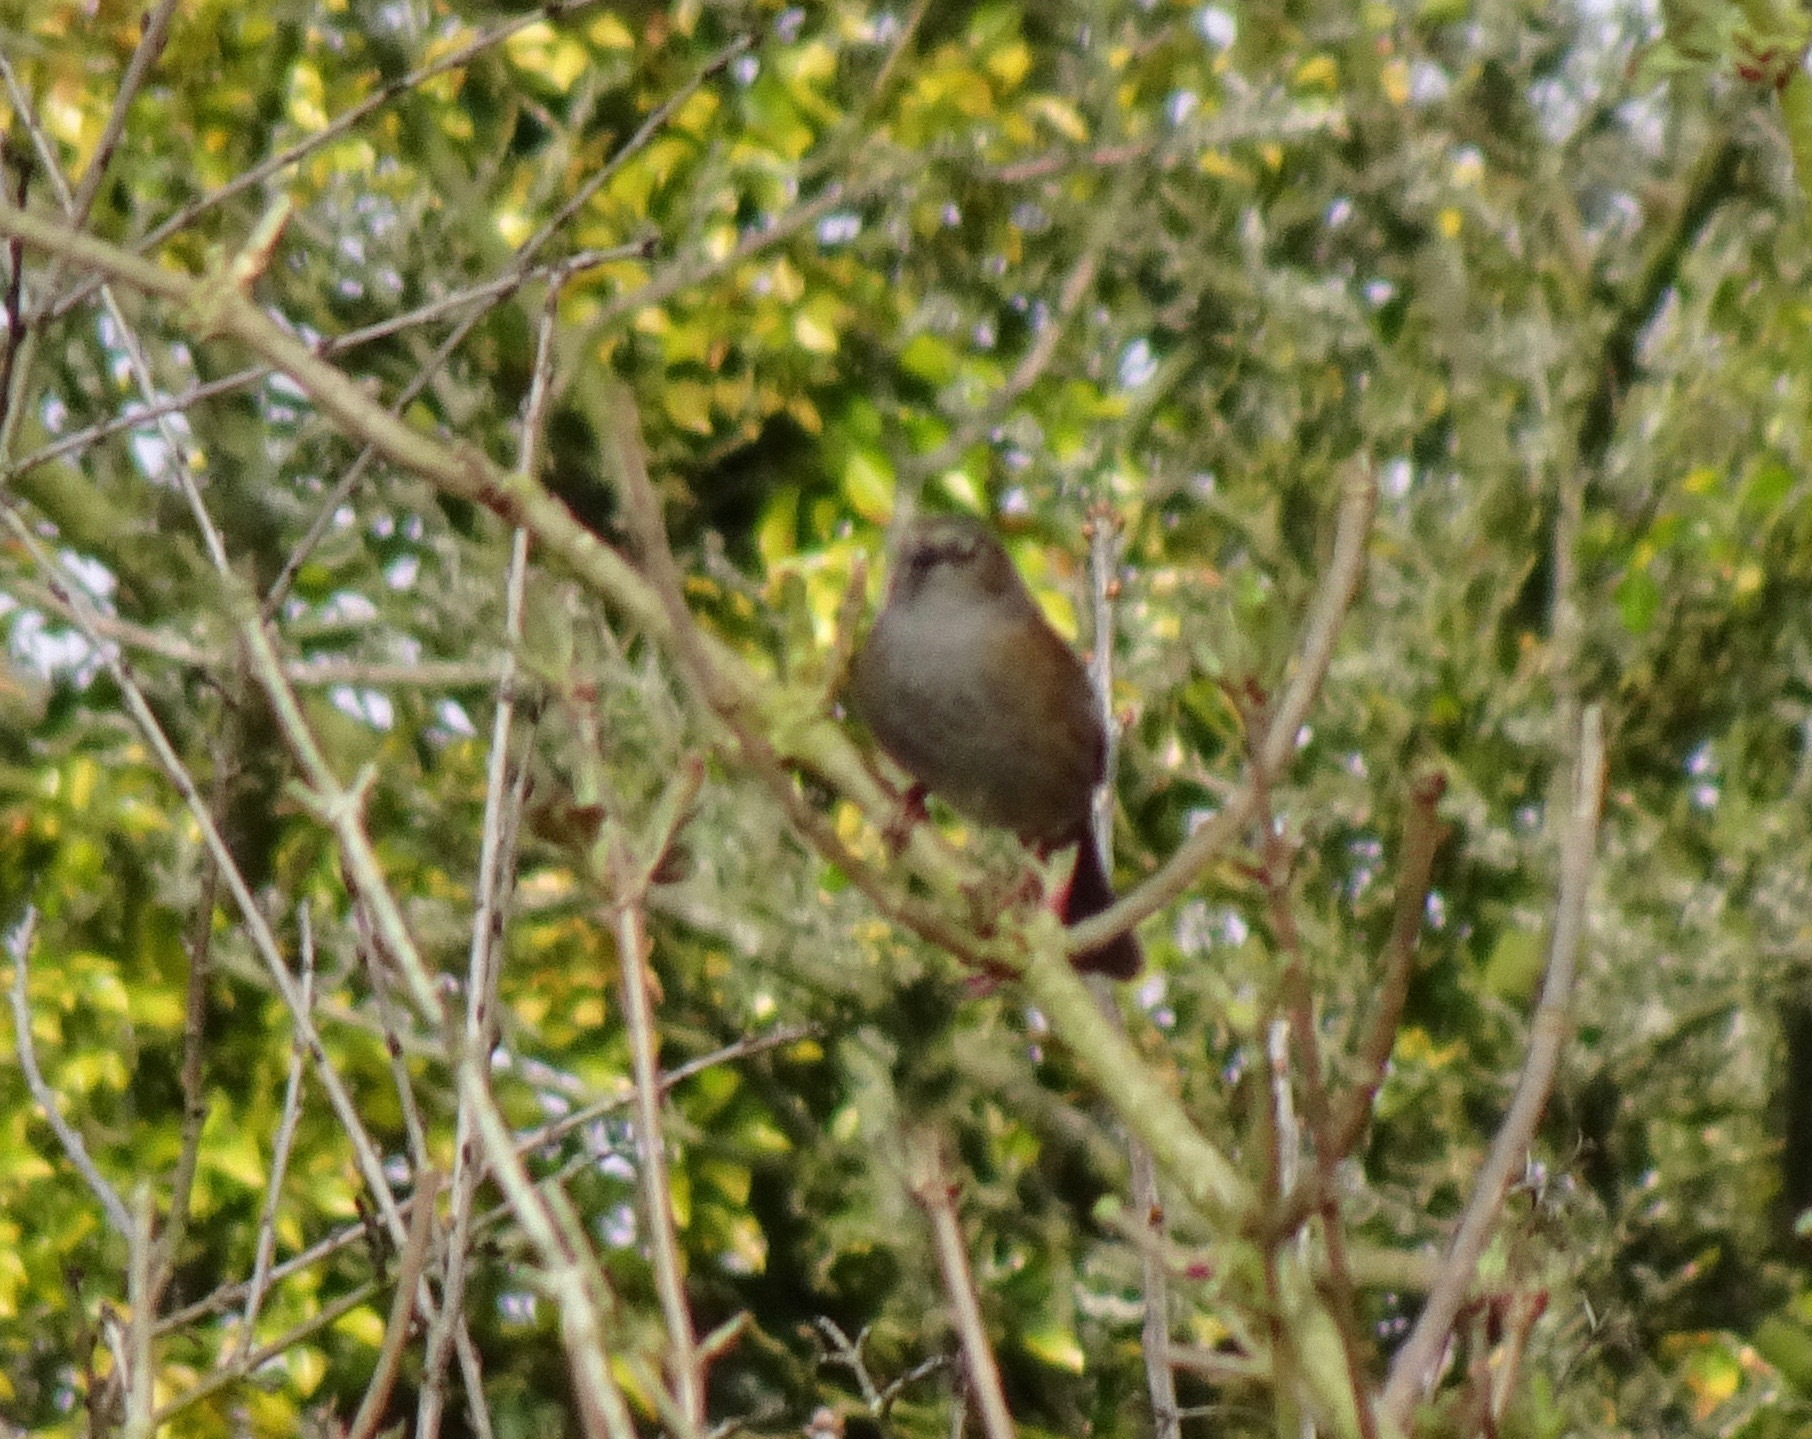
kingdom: Animalia
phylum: Chordata
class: Aves
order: Passeriformes
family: Prunellidae
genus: Prunella
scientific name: Prunella modularis
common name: Dunnock
